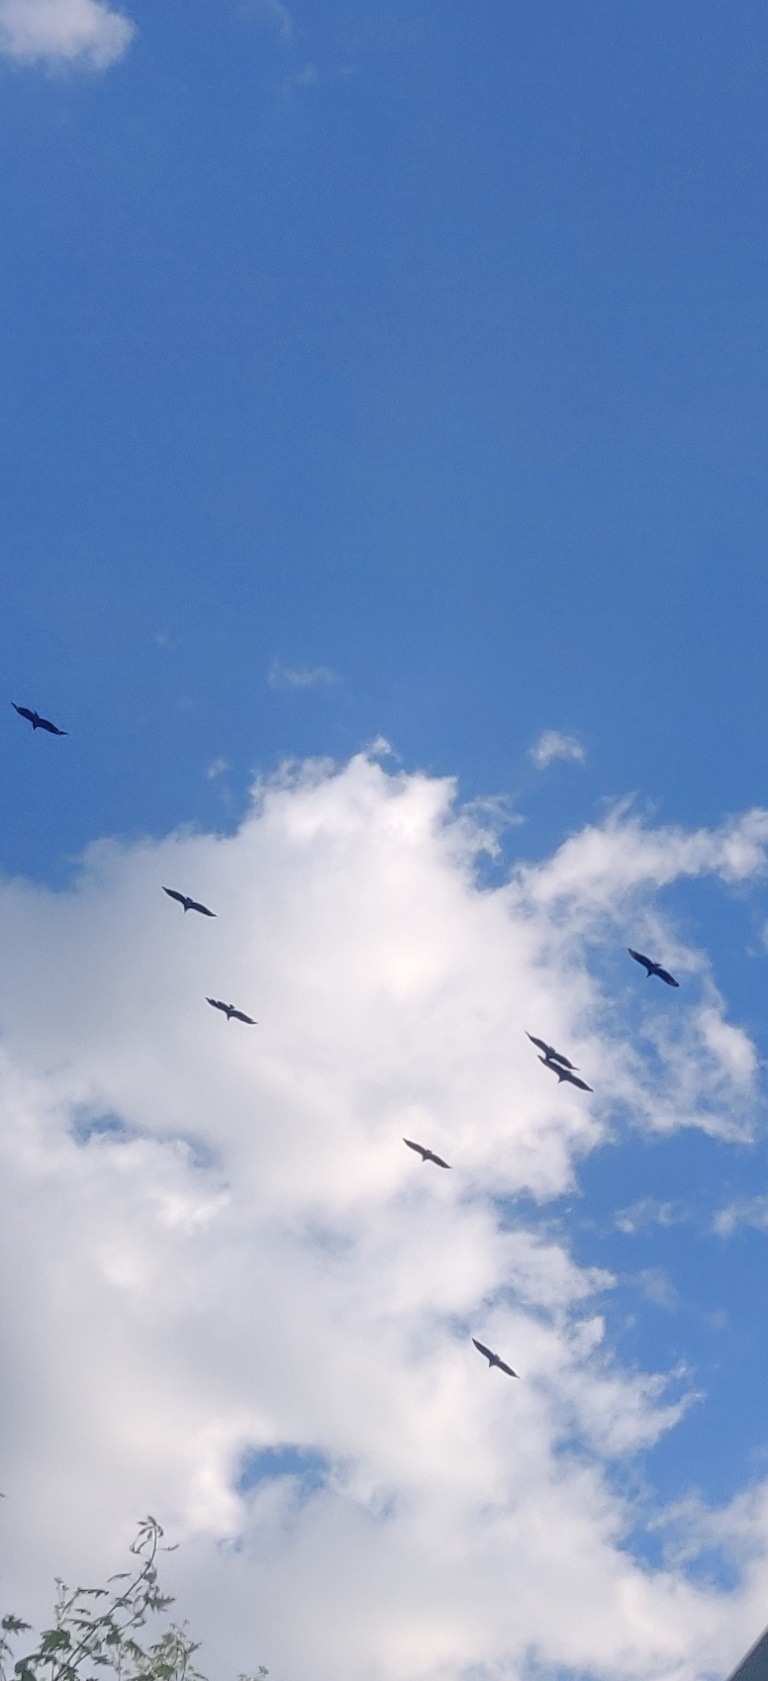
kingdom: Animalia
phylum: Chordata
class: Aves
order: Accipitriformes
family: Cathartidae
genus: Coragyps
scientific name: Coragyps atratus
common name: Black vulture
